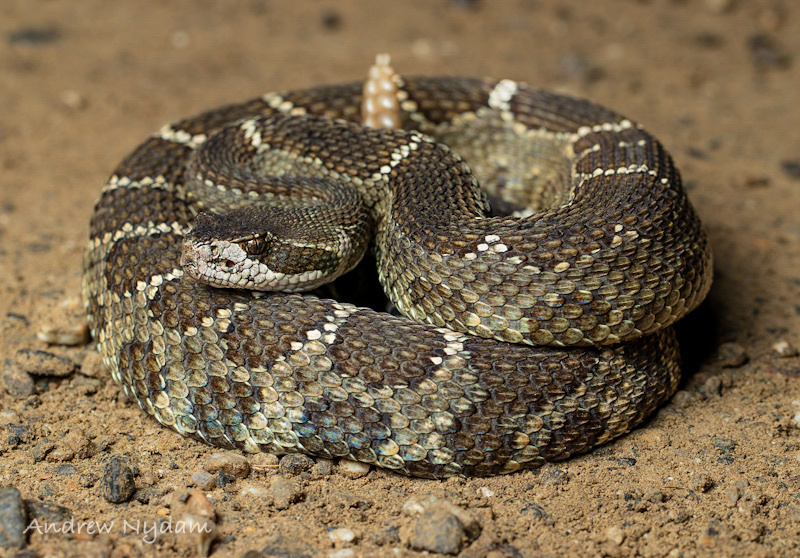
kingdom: Animalia
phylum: Chordata
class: Squamata
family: Viperidae
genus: Crotalus
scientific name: Crotalus oreganus
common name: Abyssus
